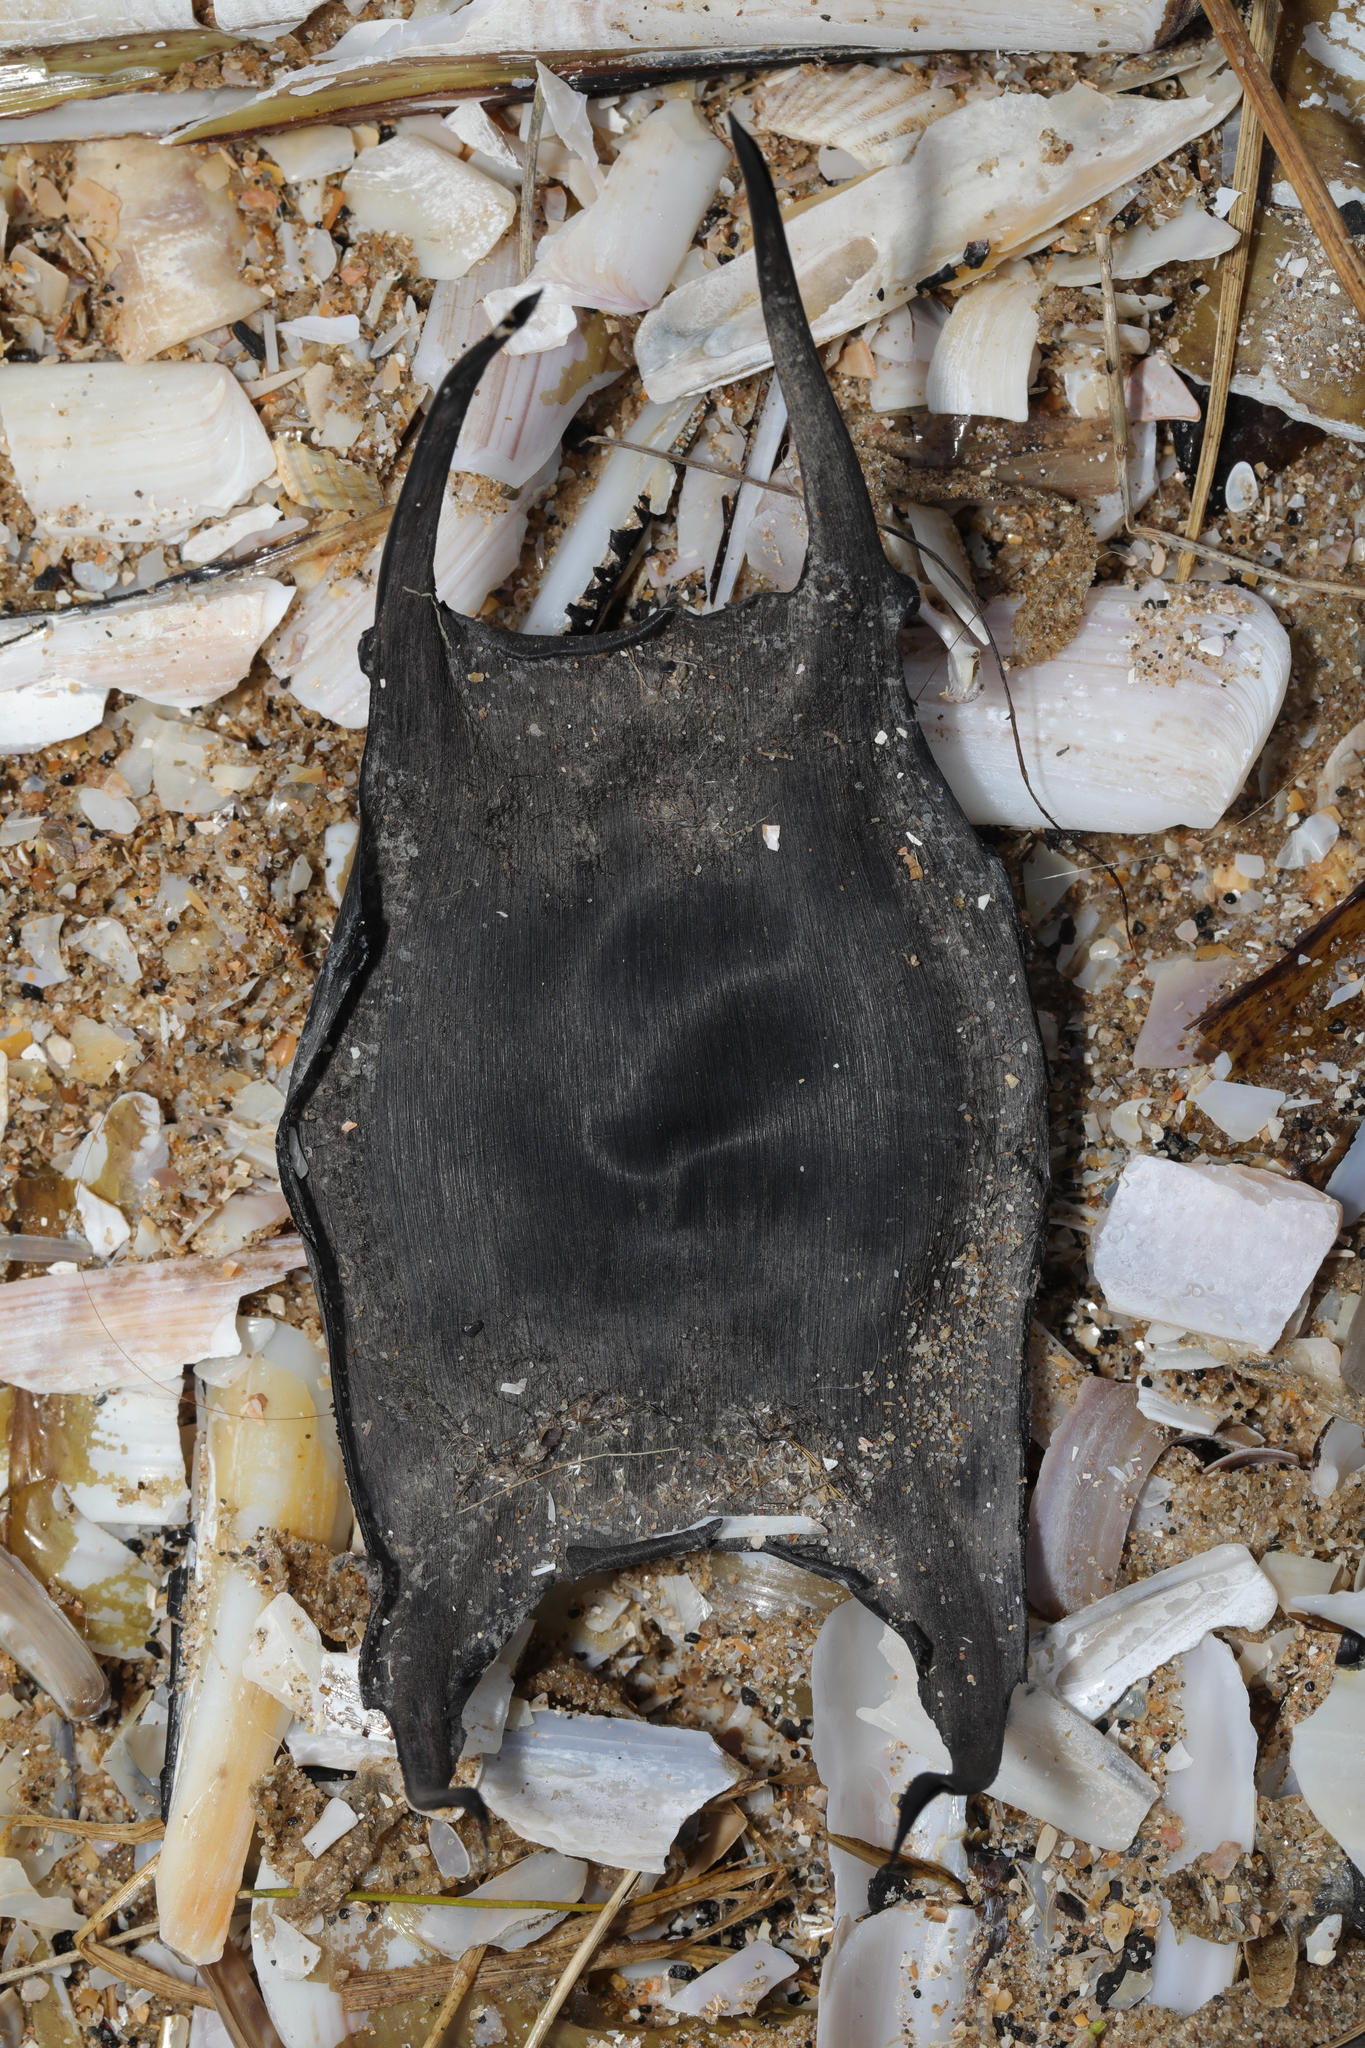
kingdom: Animalia
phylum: Chordata
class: Elasmobranchii
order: Rajiformes
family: Rajidae
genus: Raja
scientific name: Raja clavata
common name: Thornback ray
